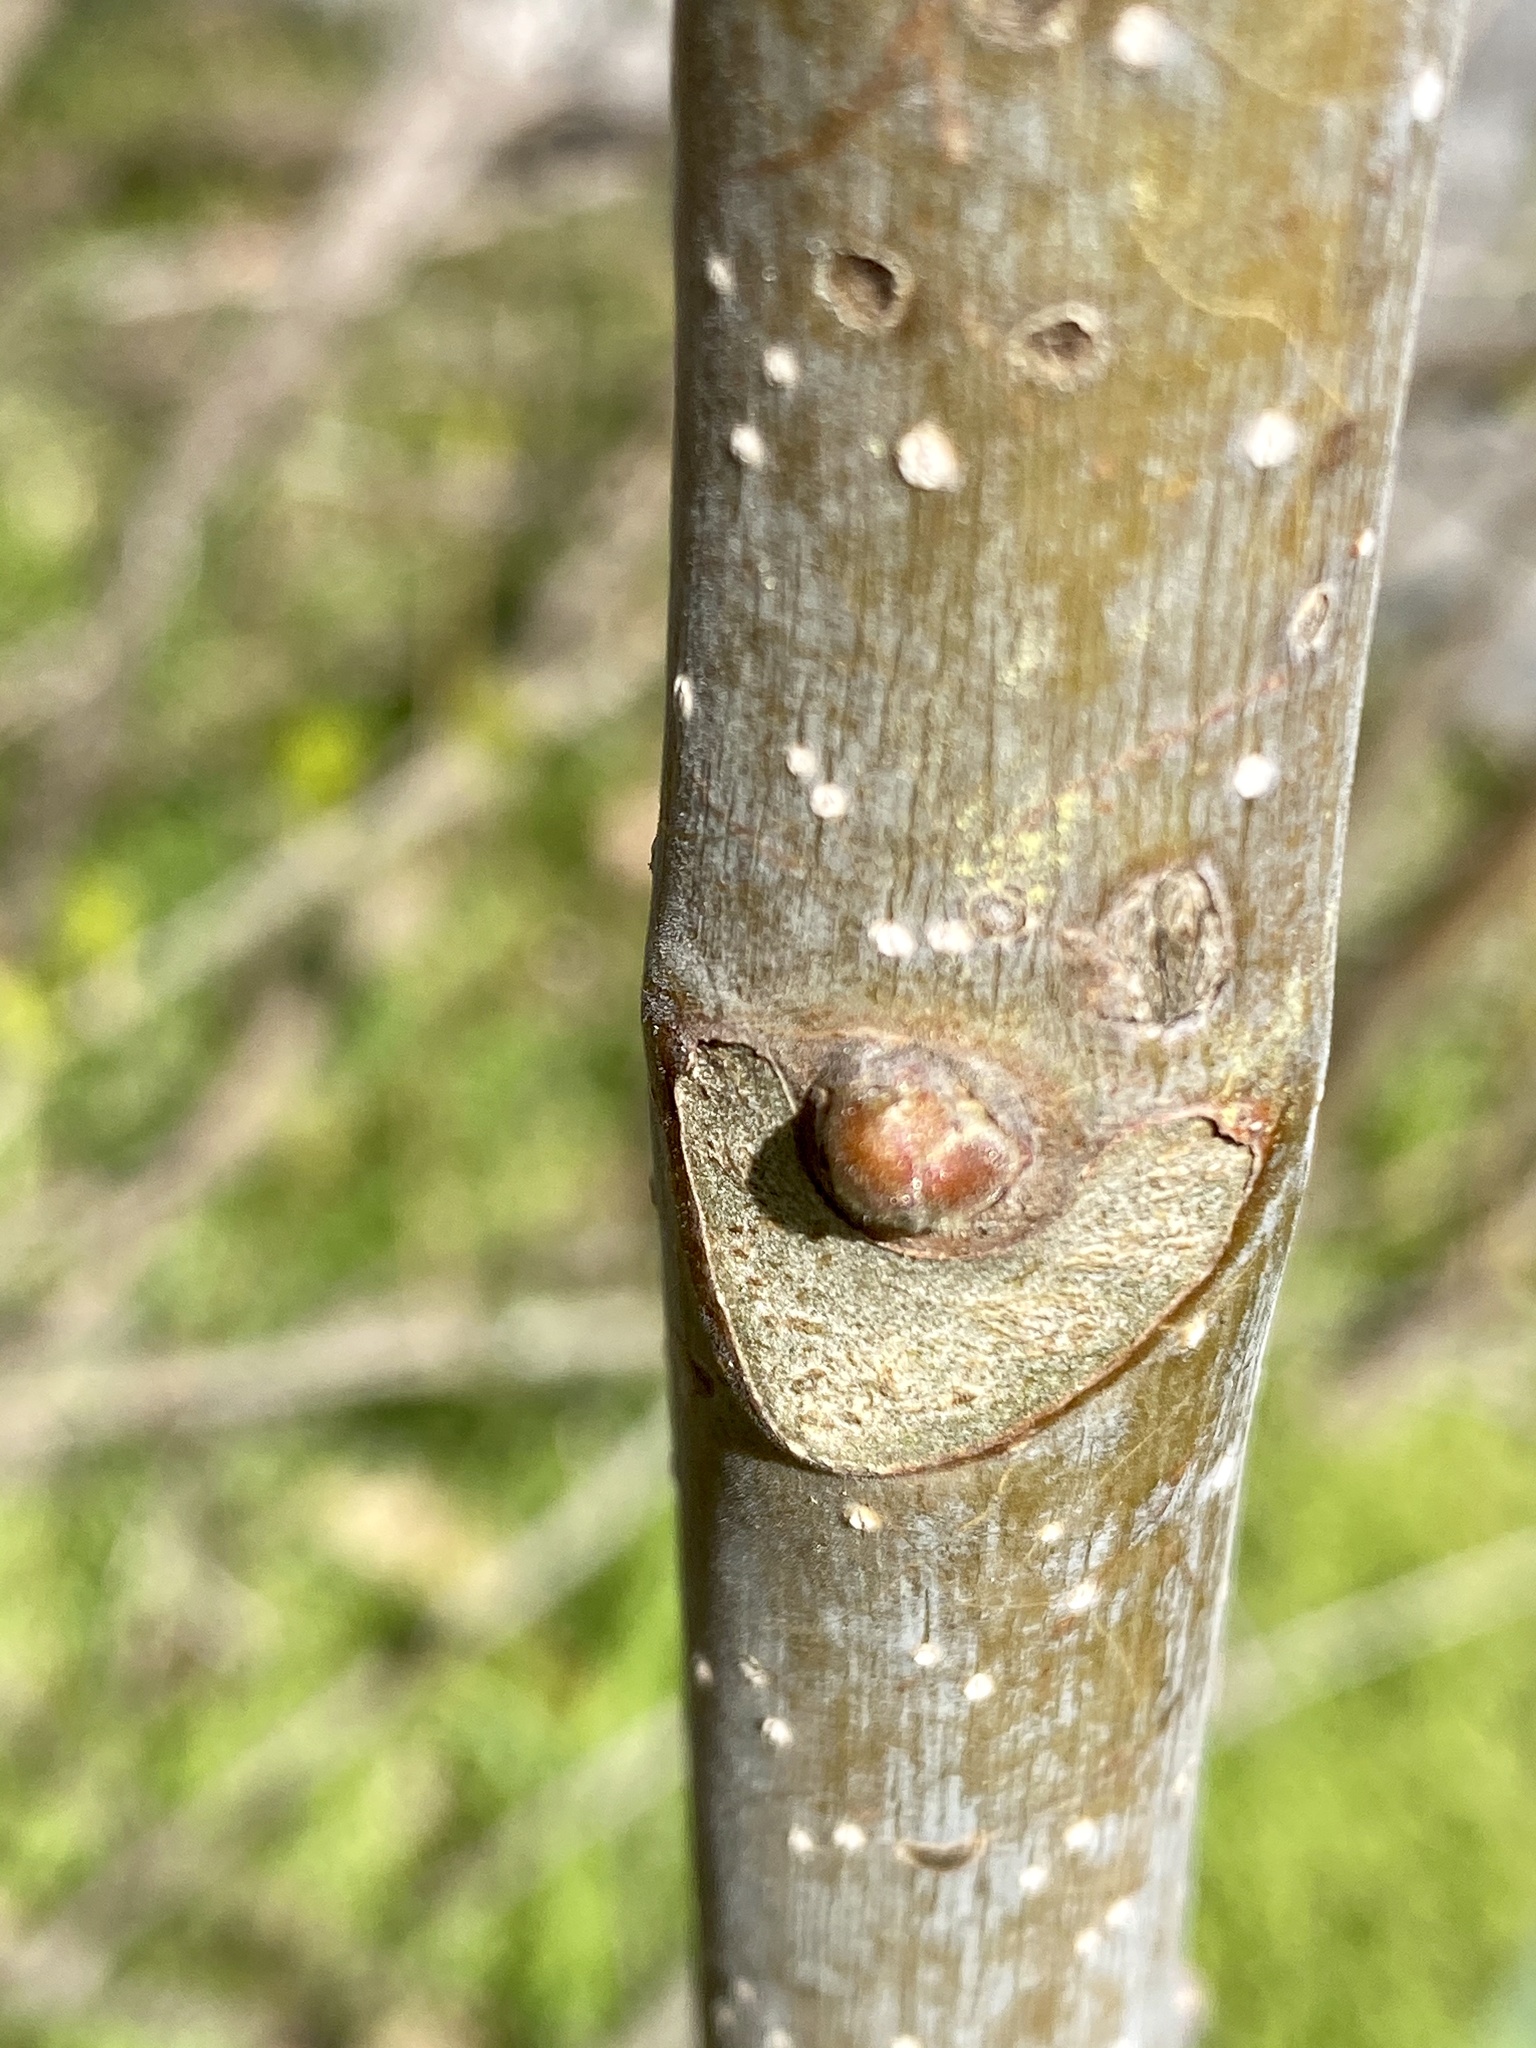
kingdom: Plantae
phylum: Tracheophyta
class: Magnoliopsida
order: Sapindales
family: Simaroubaceae
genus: Ailanthus
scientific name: Ailanthus altissima
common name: Tree-of-heaven
